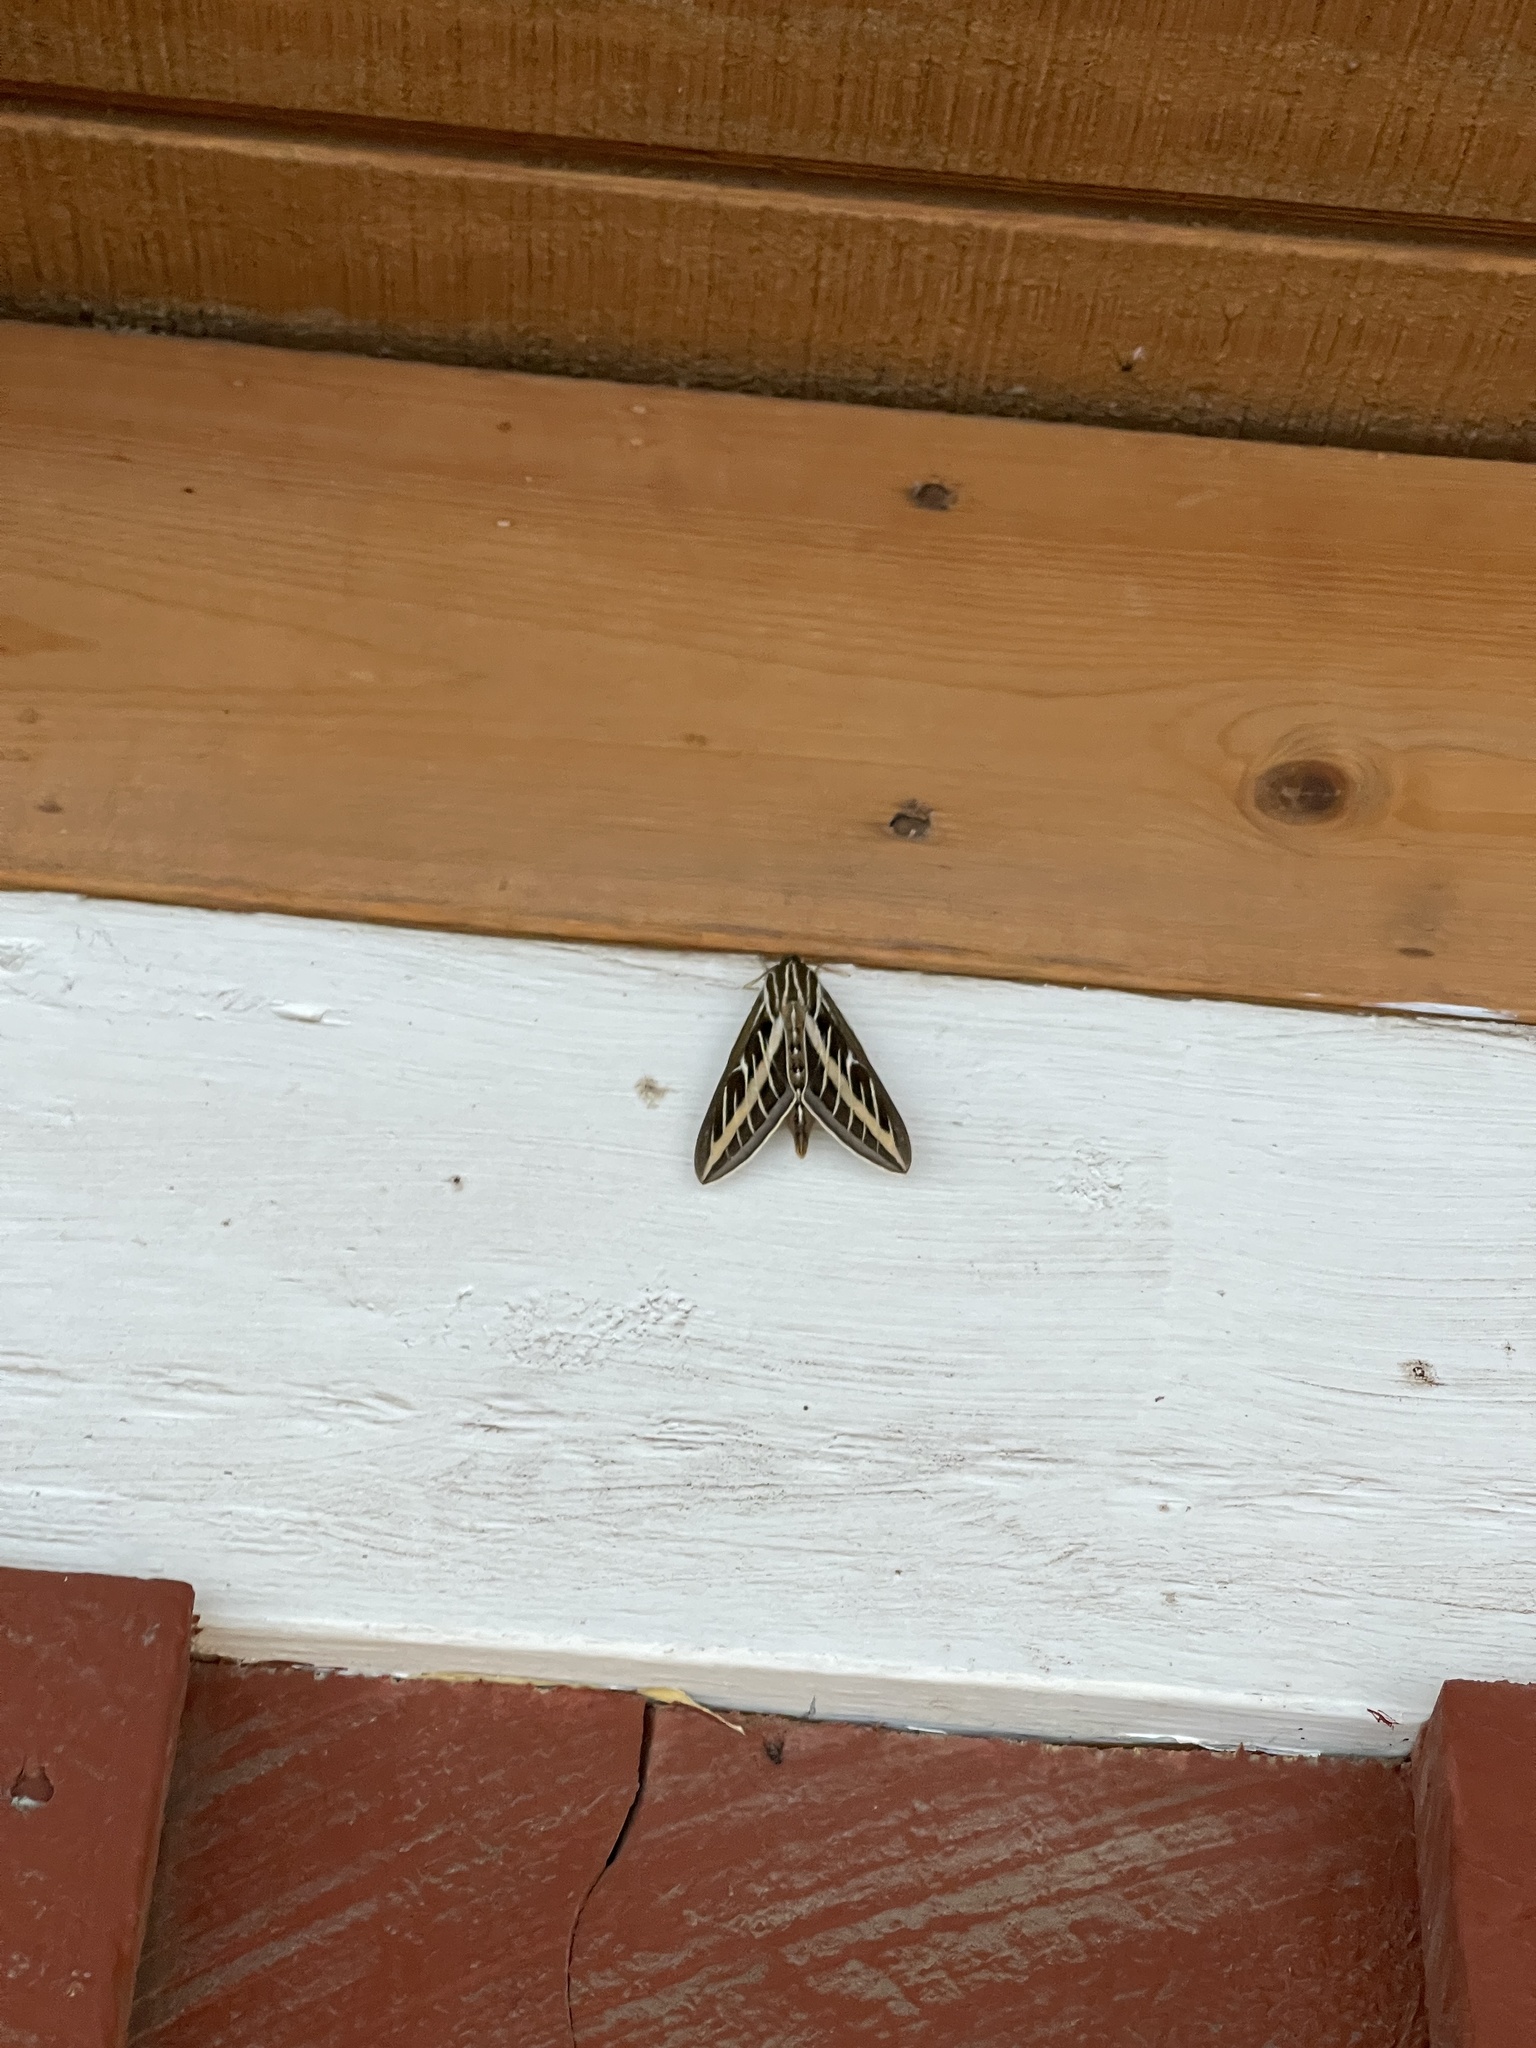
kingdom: Animalia
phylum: Arthropoda
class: Insecta
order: Lepidoptera
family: Sphingidae
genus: Hyles
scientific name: Hyles lineata
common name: White-lined sphinx
